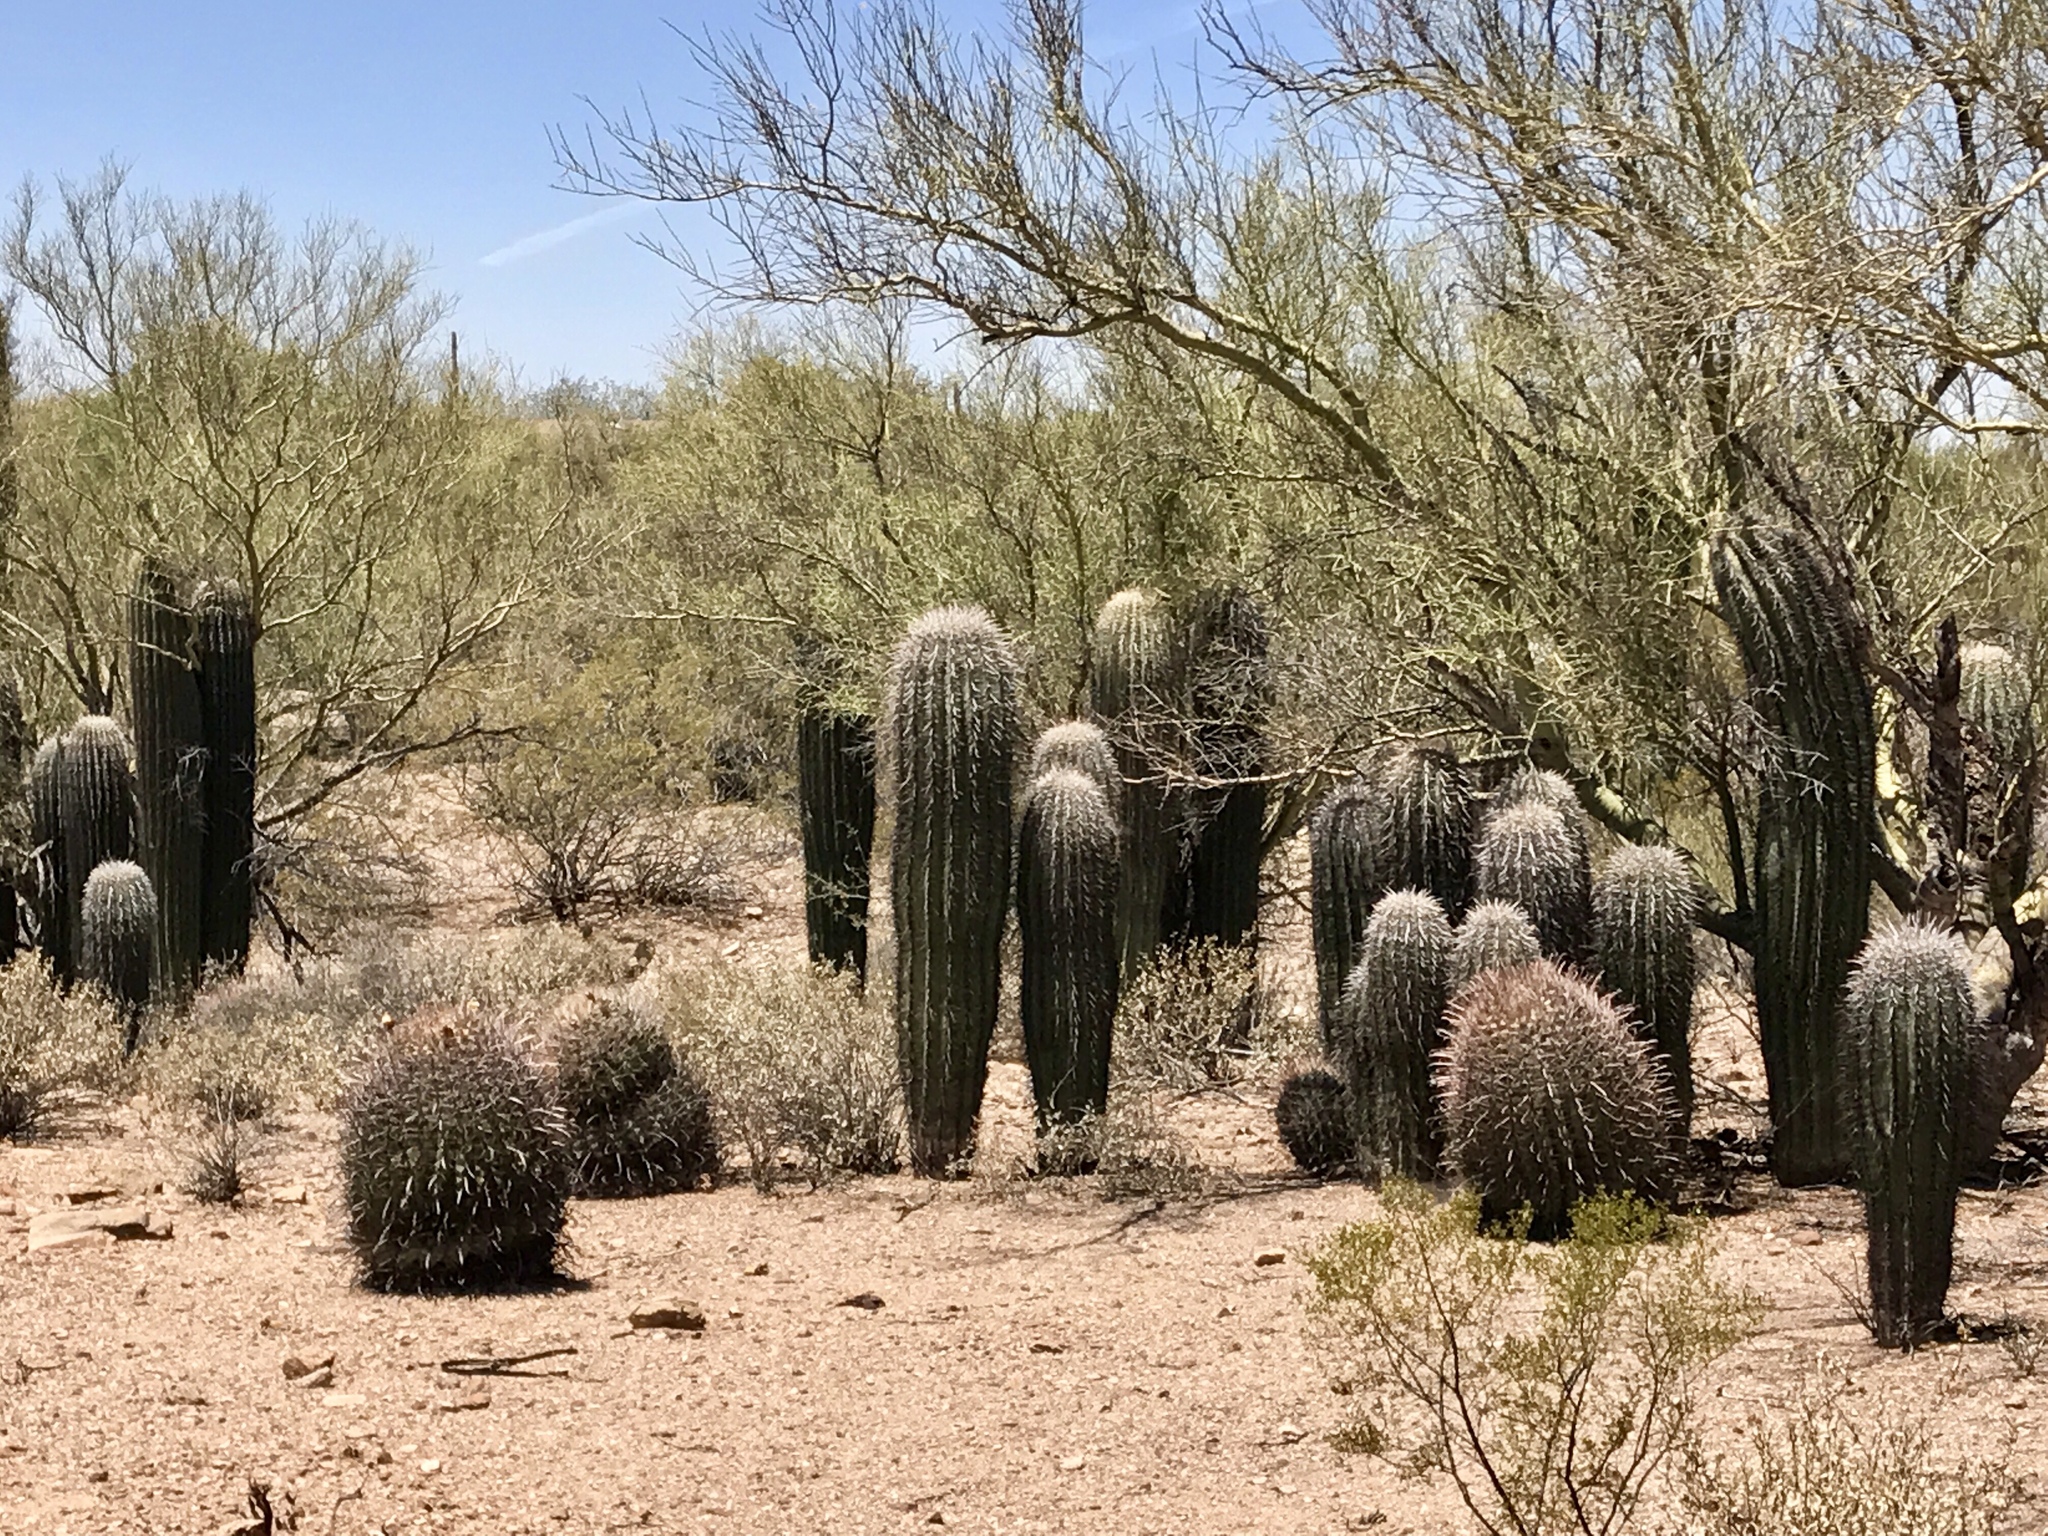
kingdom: Plantae
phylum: Tracheophyta
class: Magnoliopsida
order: Caryophyllales
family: Cactaceae
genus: Ferocactus
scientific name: Ferocactus wislizeni
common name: Candy barrel cactus
